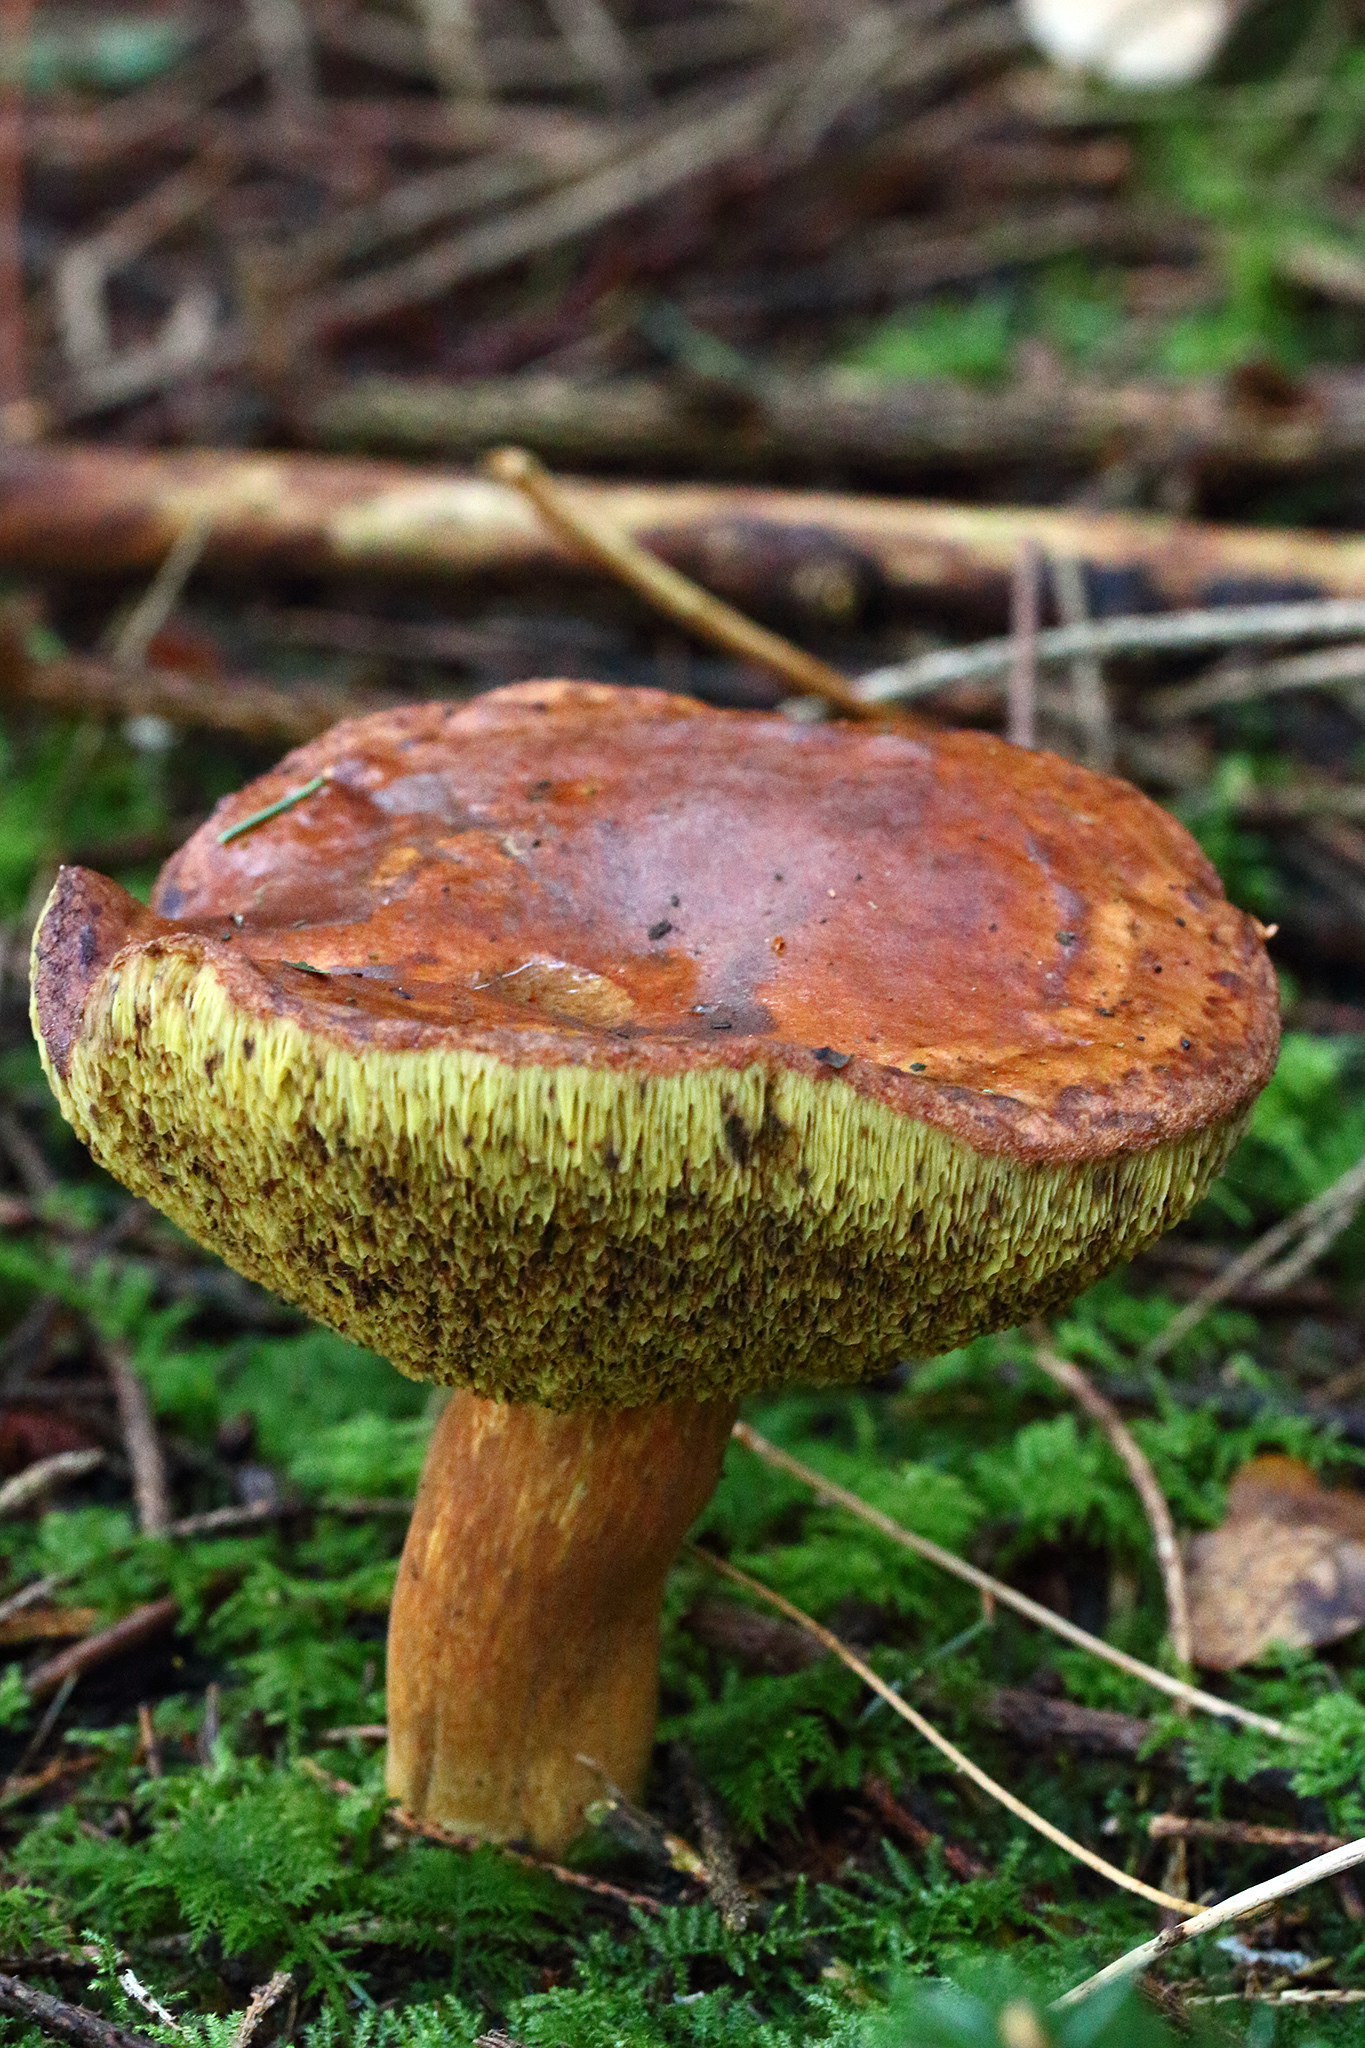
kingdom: Fungi
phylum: Basidiomycota
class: Agaricomycetes
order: Boletales
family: Boletaceae
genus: Imleria
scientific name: Imleria badia
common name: Bay bolete
